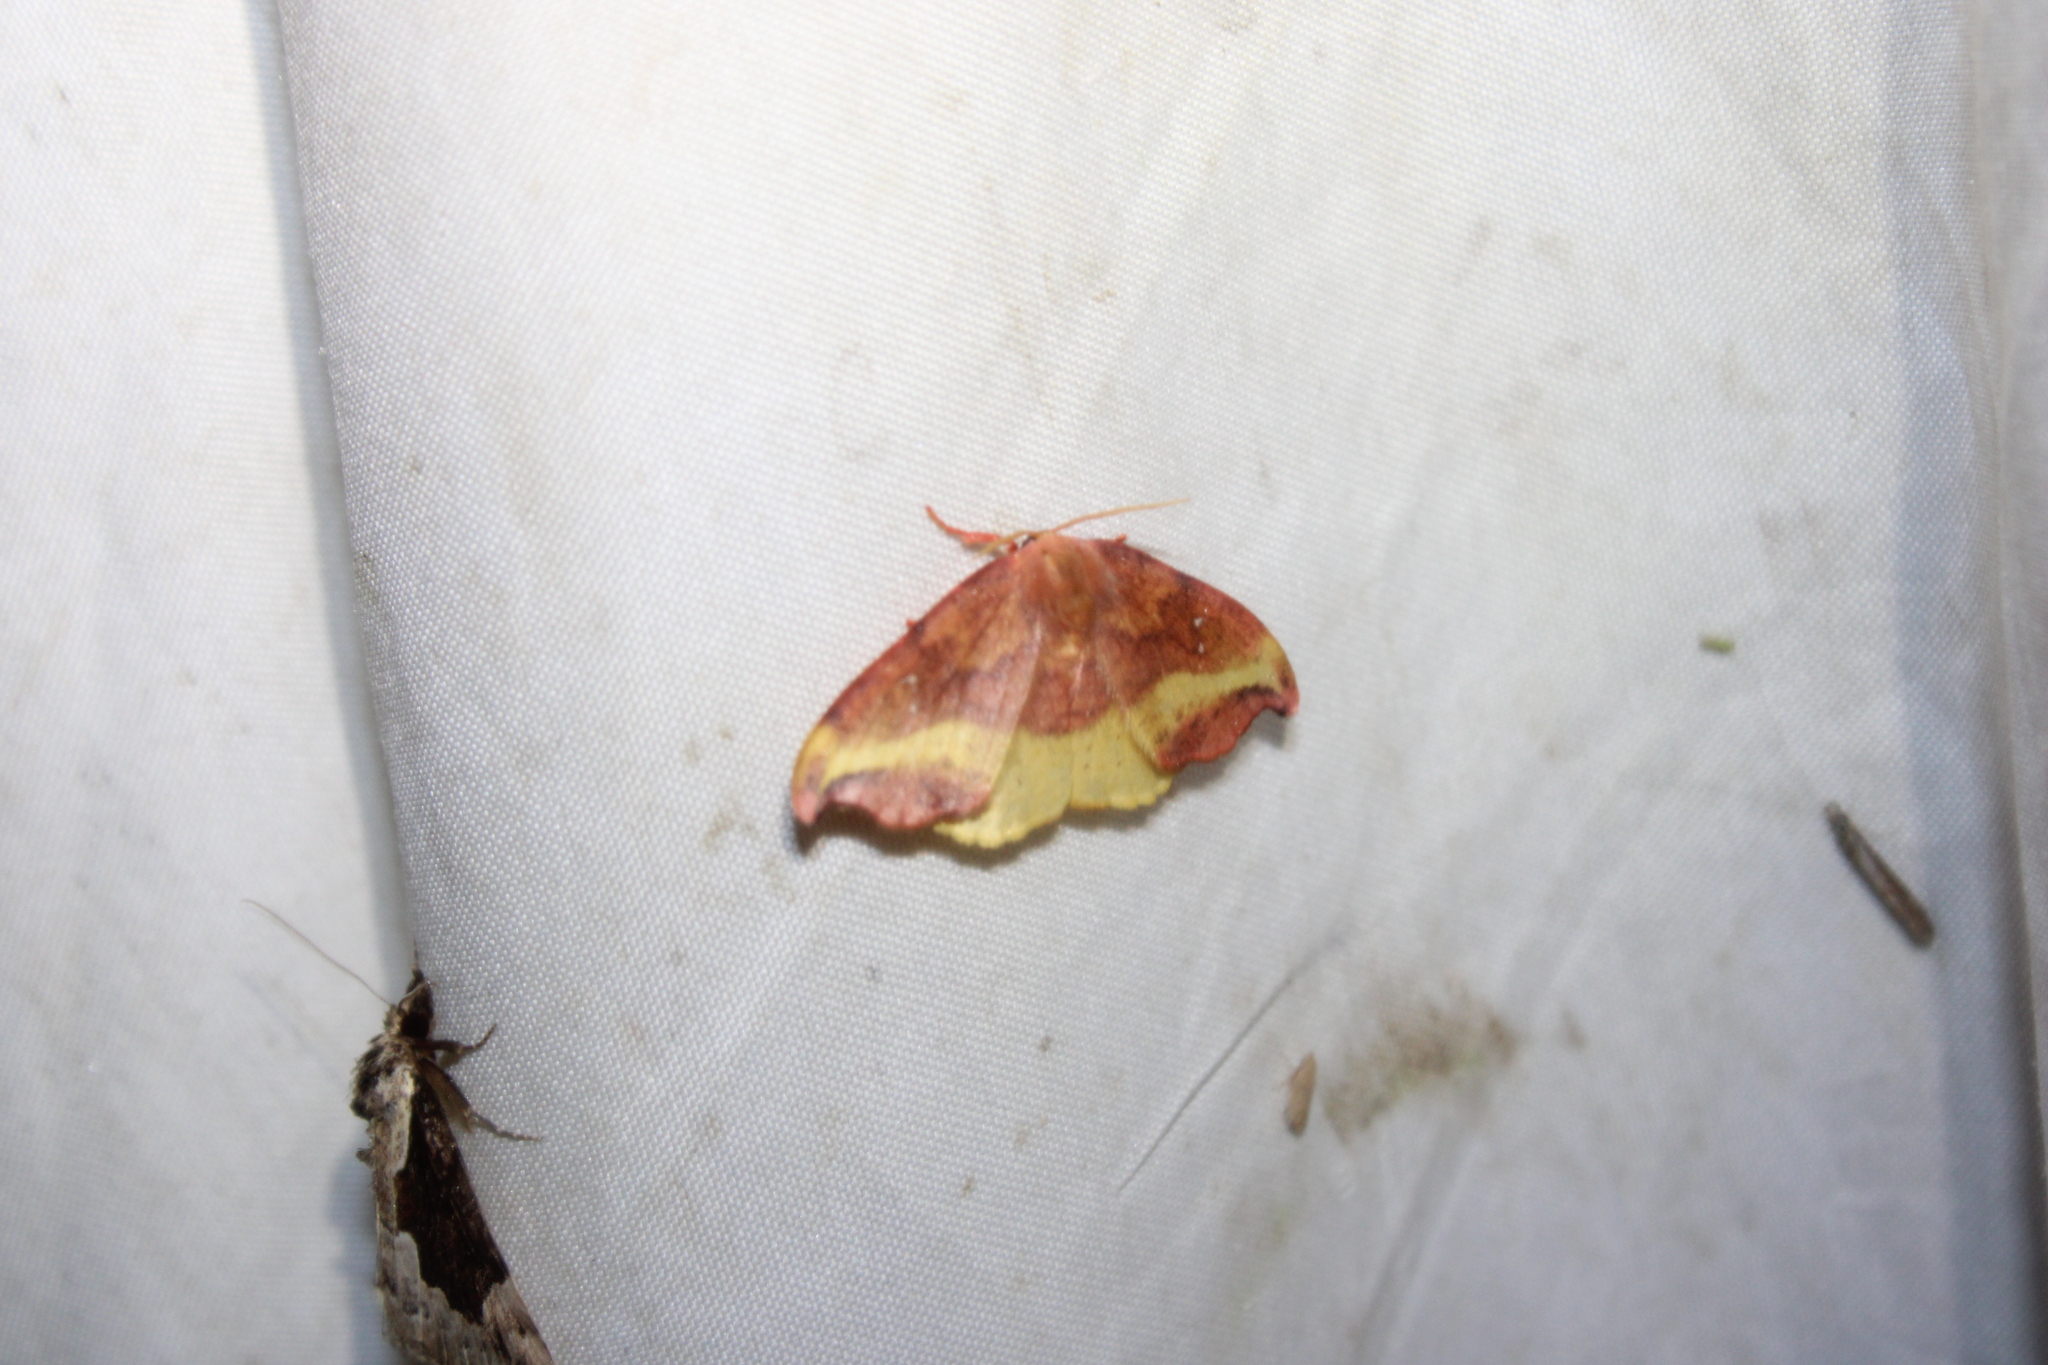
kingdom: Animalia
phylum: Arthropoda
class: Insecta
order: Lepidoptera
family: Drepanidae
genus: Oreta
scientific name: Oreta rosea
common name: Rose hooktip
